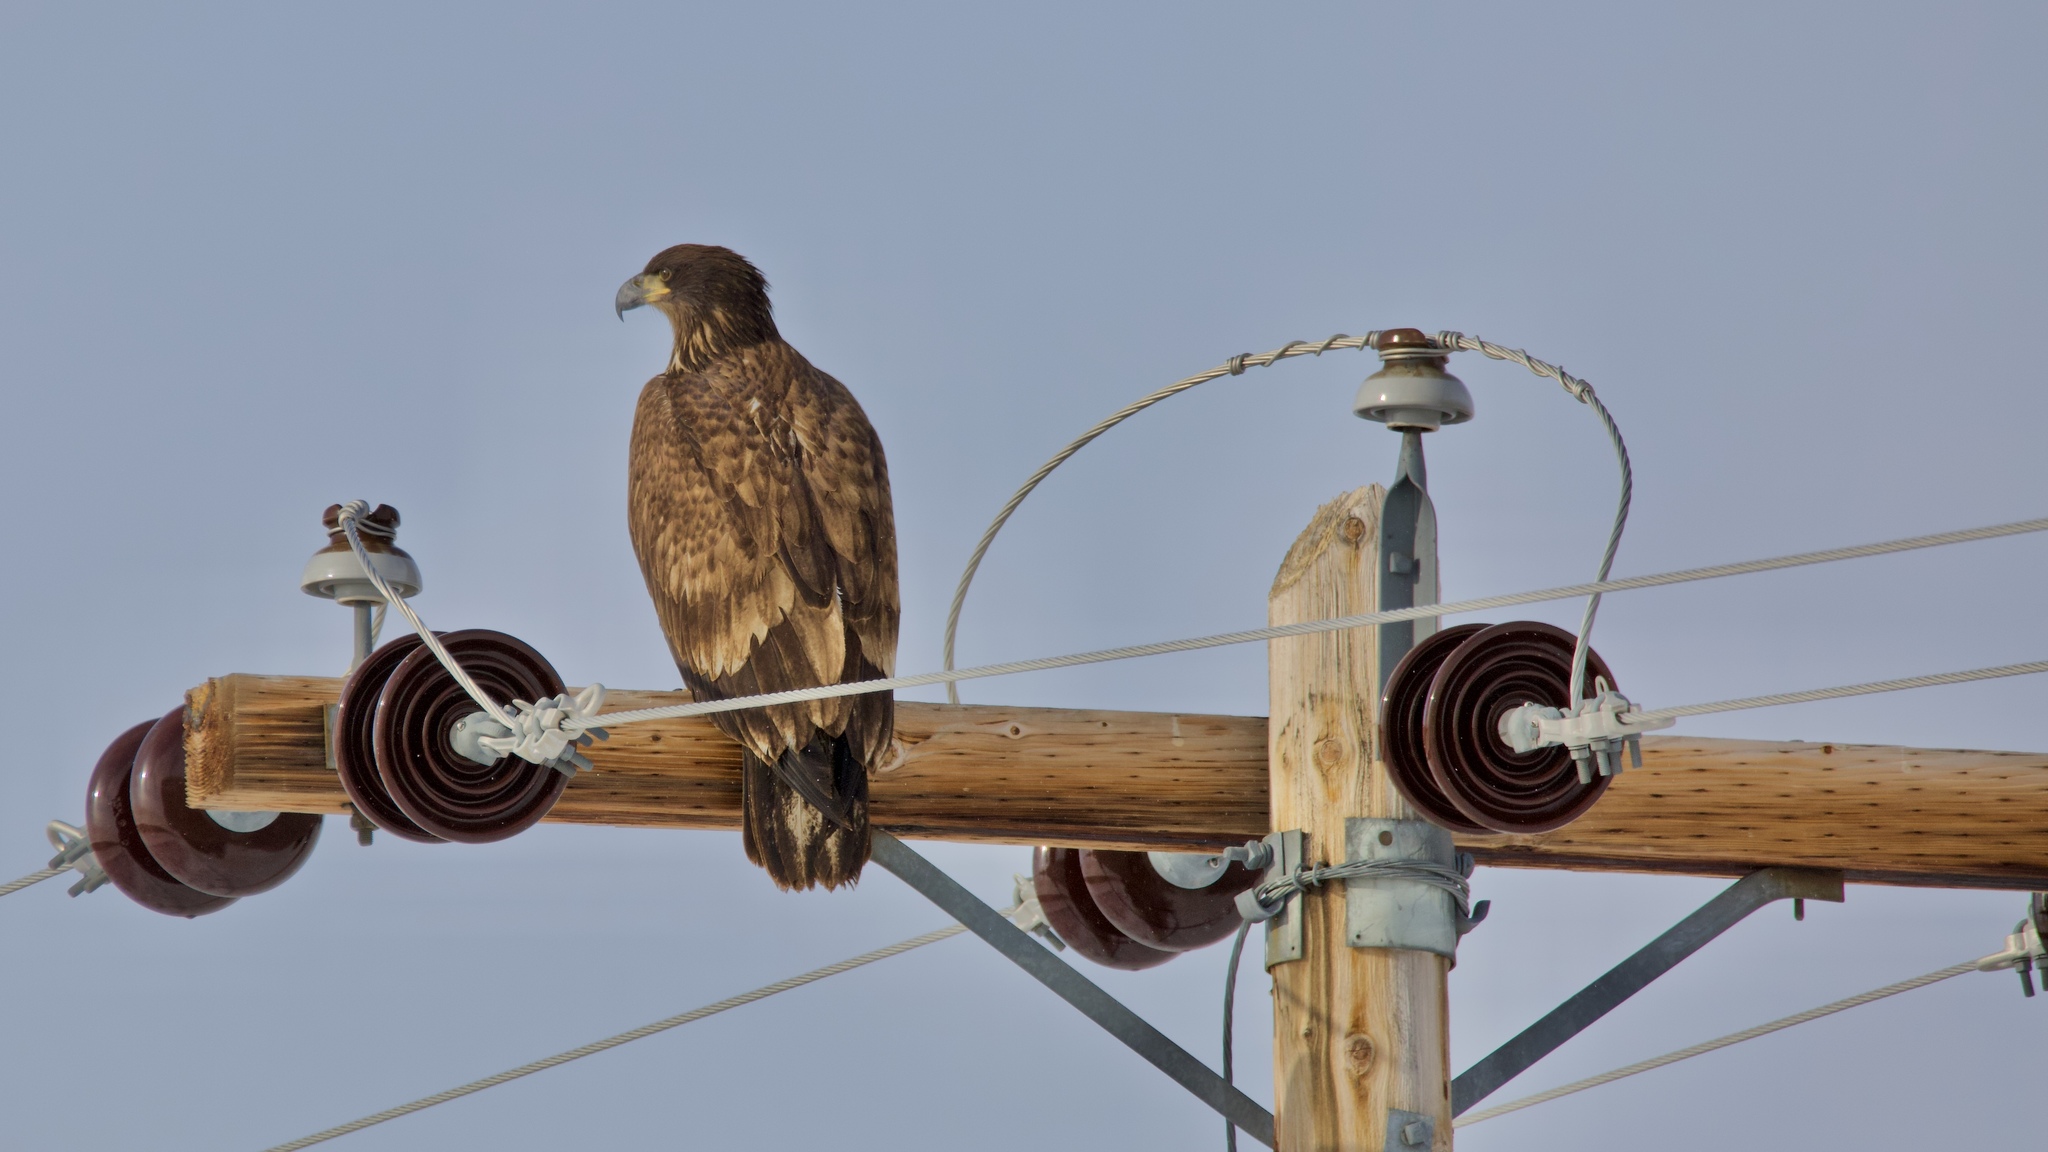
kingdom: Animalia
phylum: Chordata
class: Aves
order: Accipitriformes
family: Accipitridae
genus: Haliaeetus
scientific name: Haliaeetus leucocephalus
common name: Bald eagle
